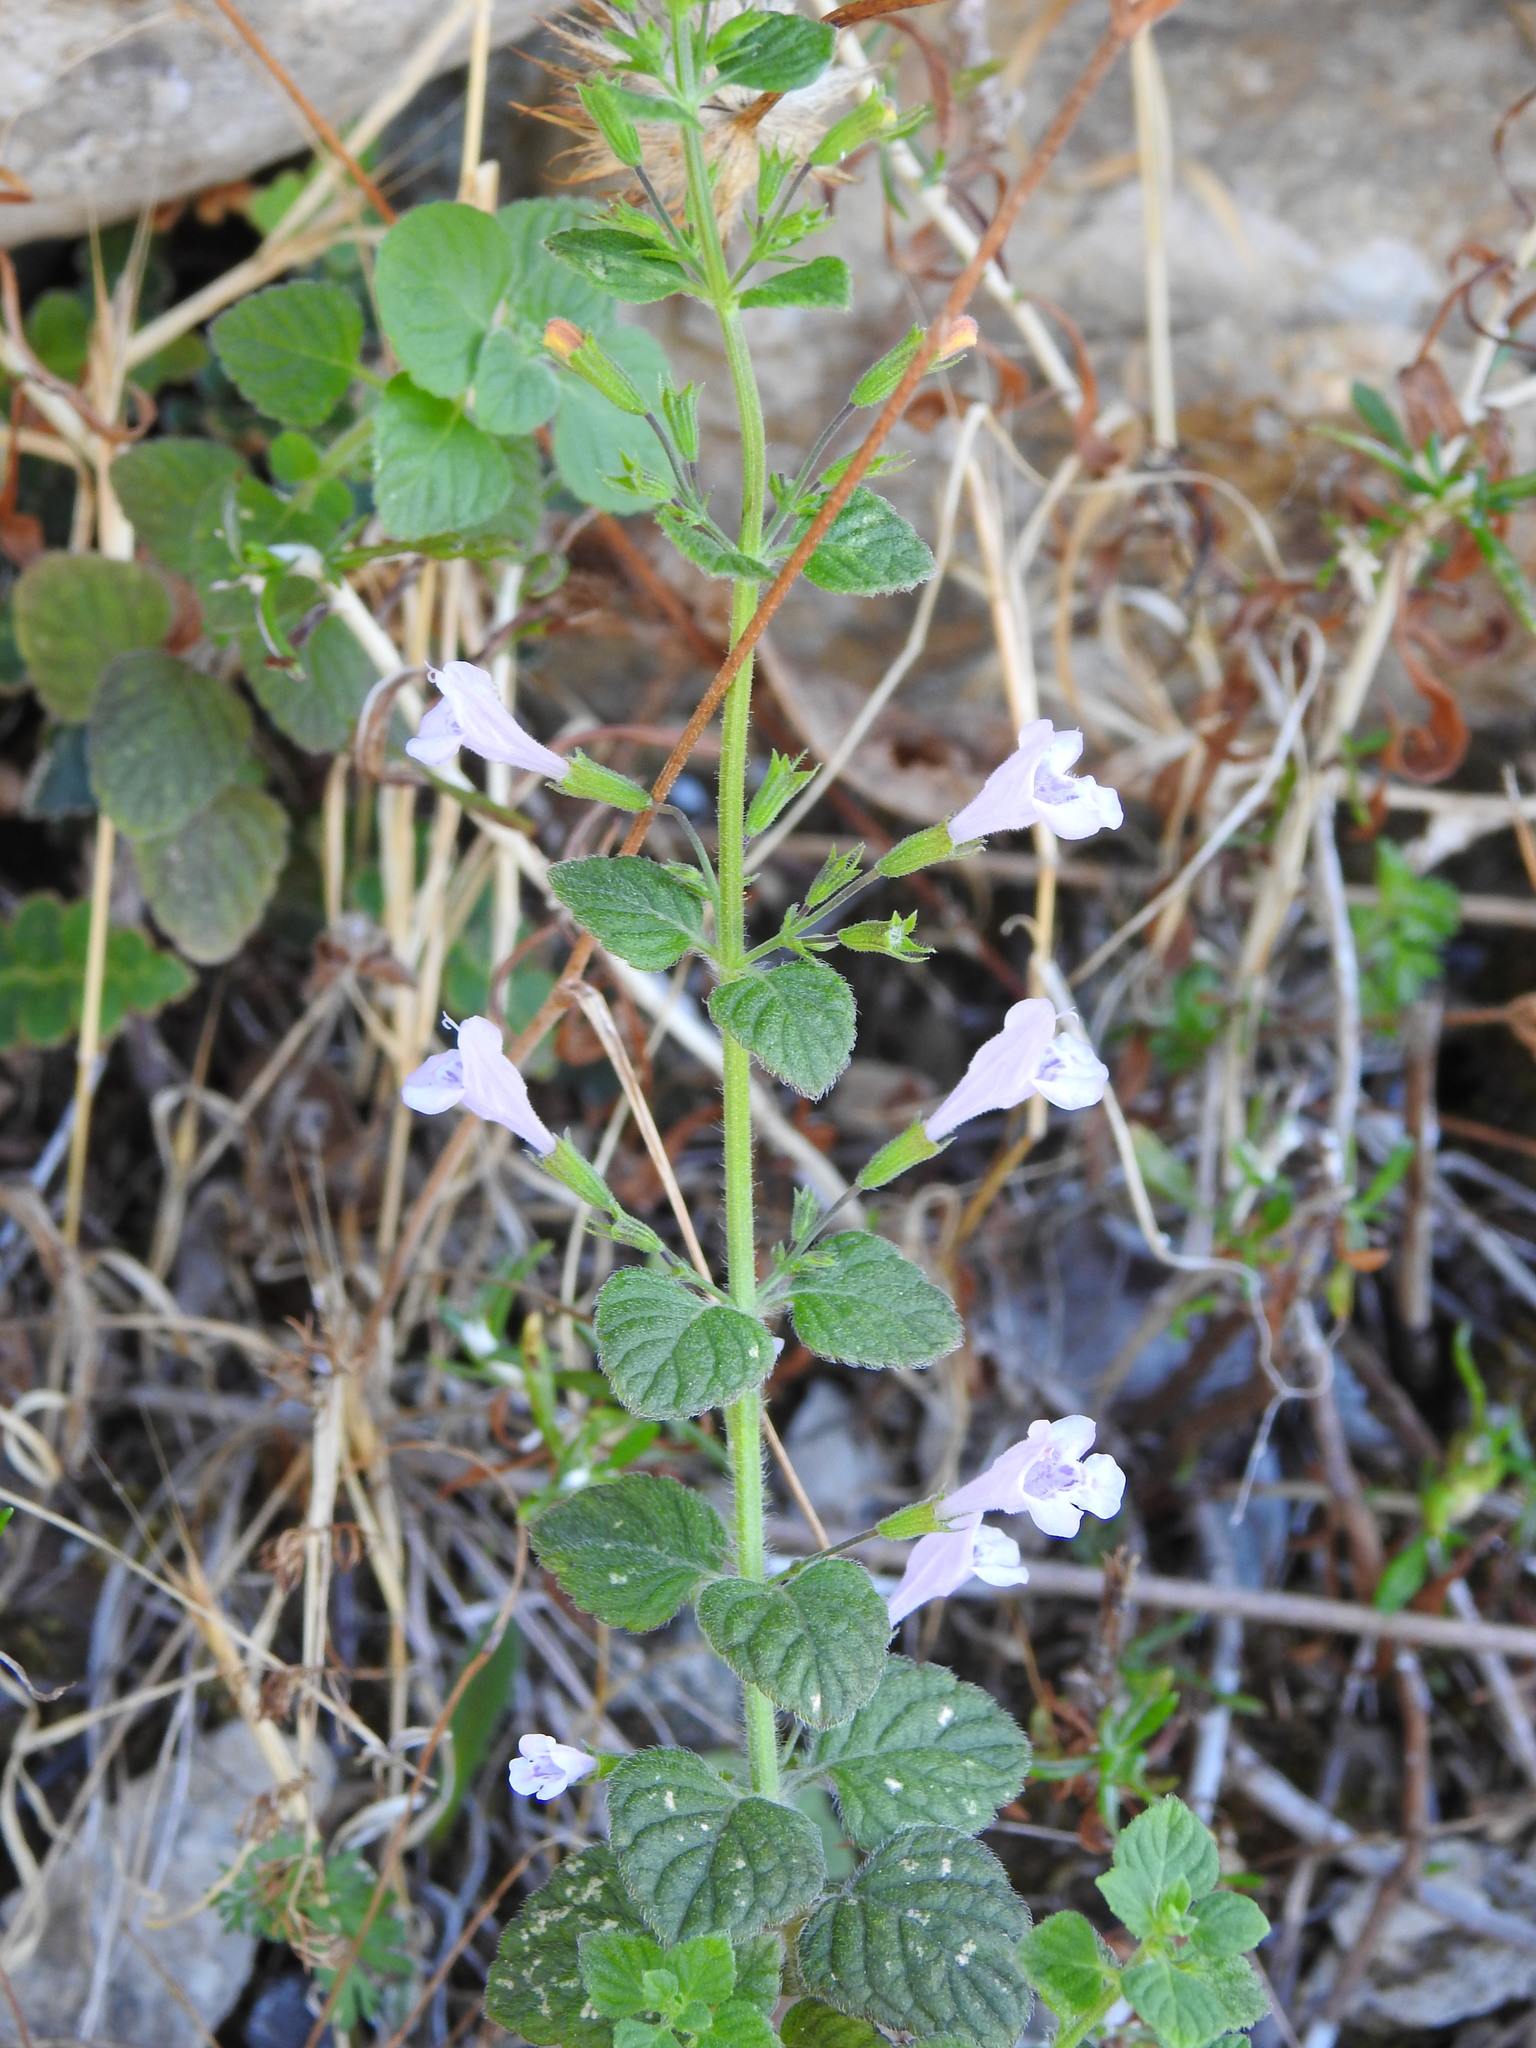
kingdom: Plantae
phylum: Tracheophyta
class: Magnoliopsida
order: Lamiales
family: Lamiaceae
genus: Clinopodium
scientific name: Clinopodium nepeta
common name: Lesser calamint
